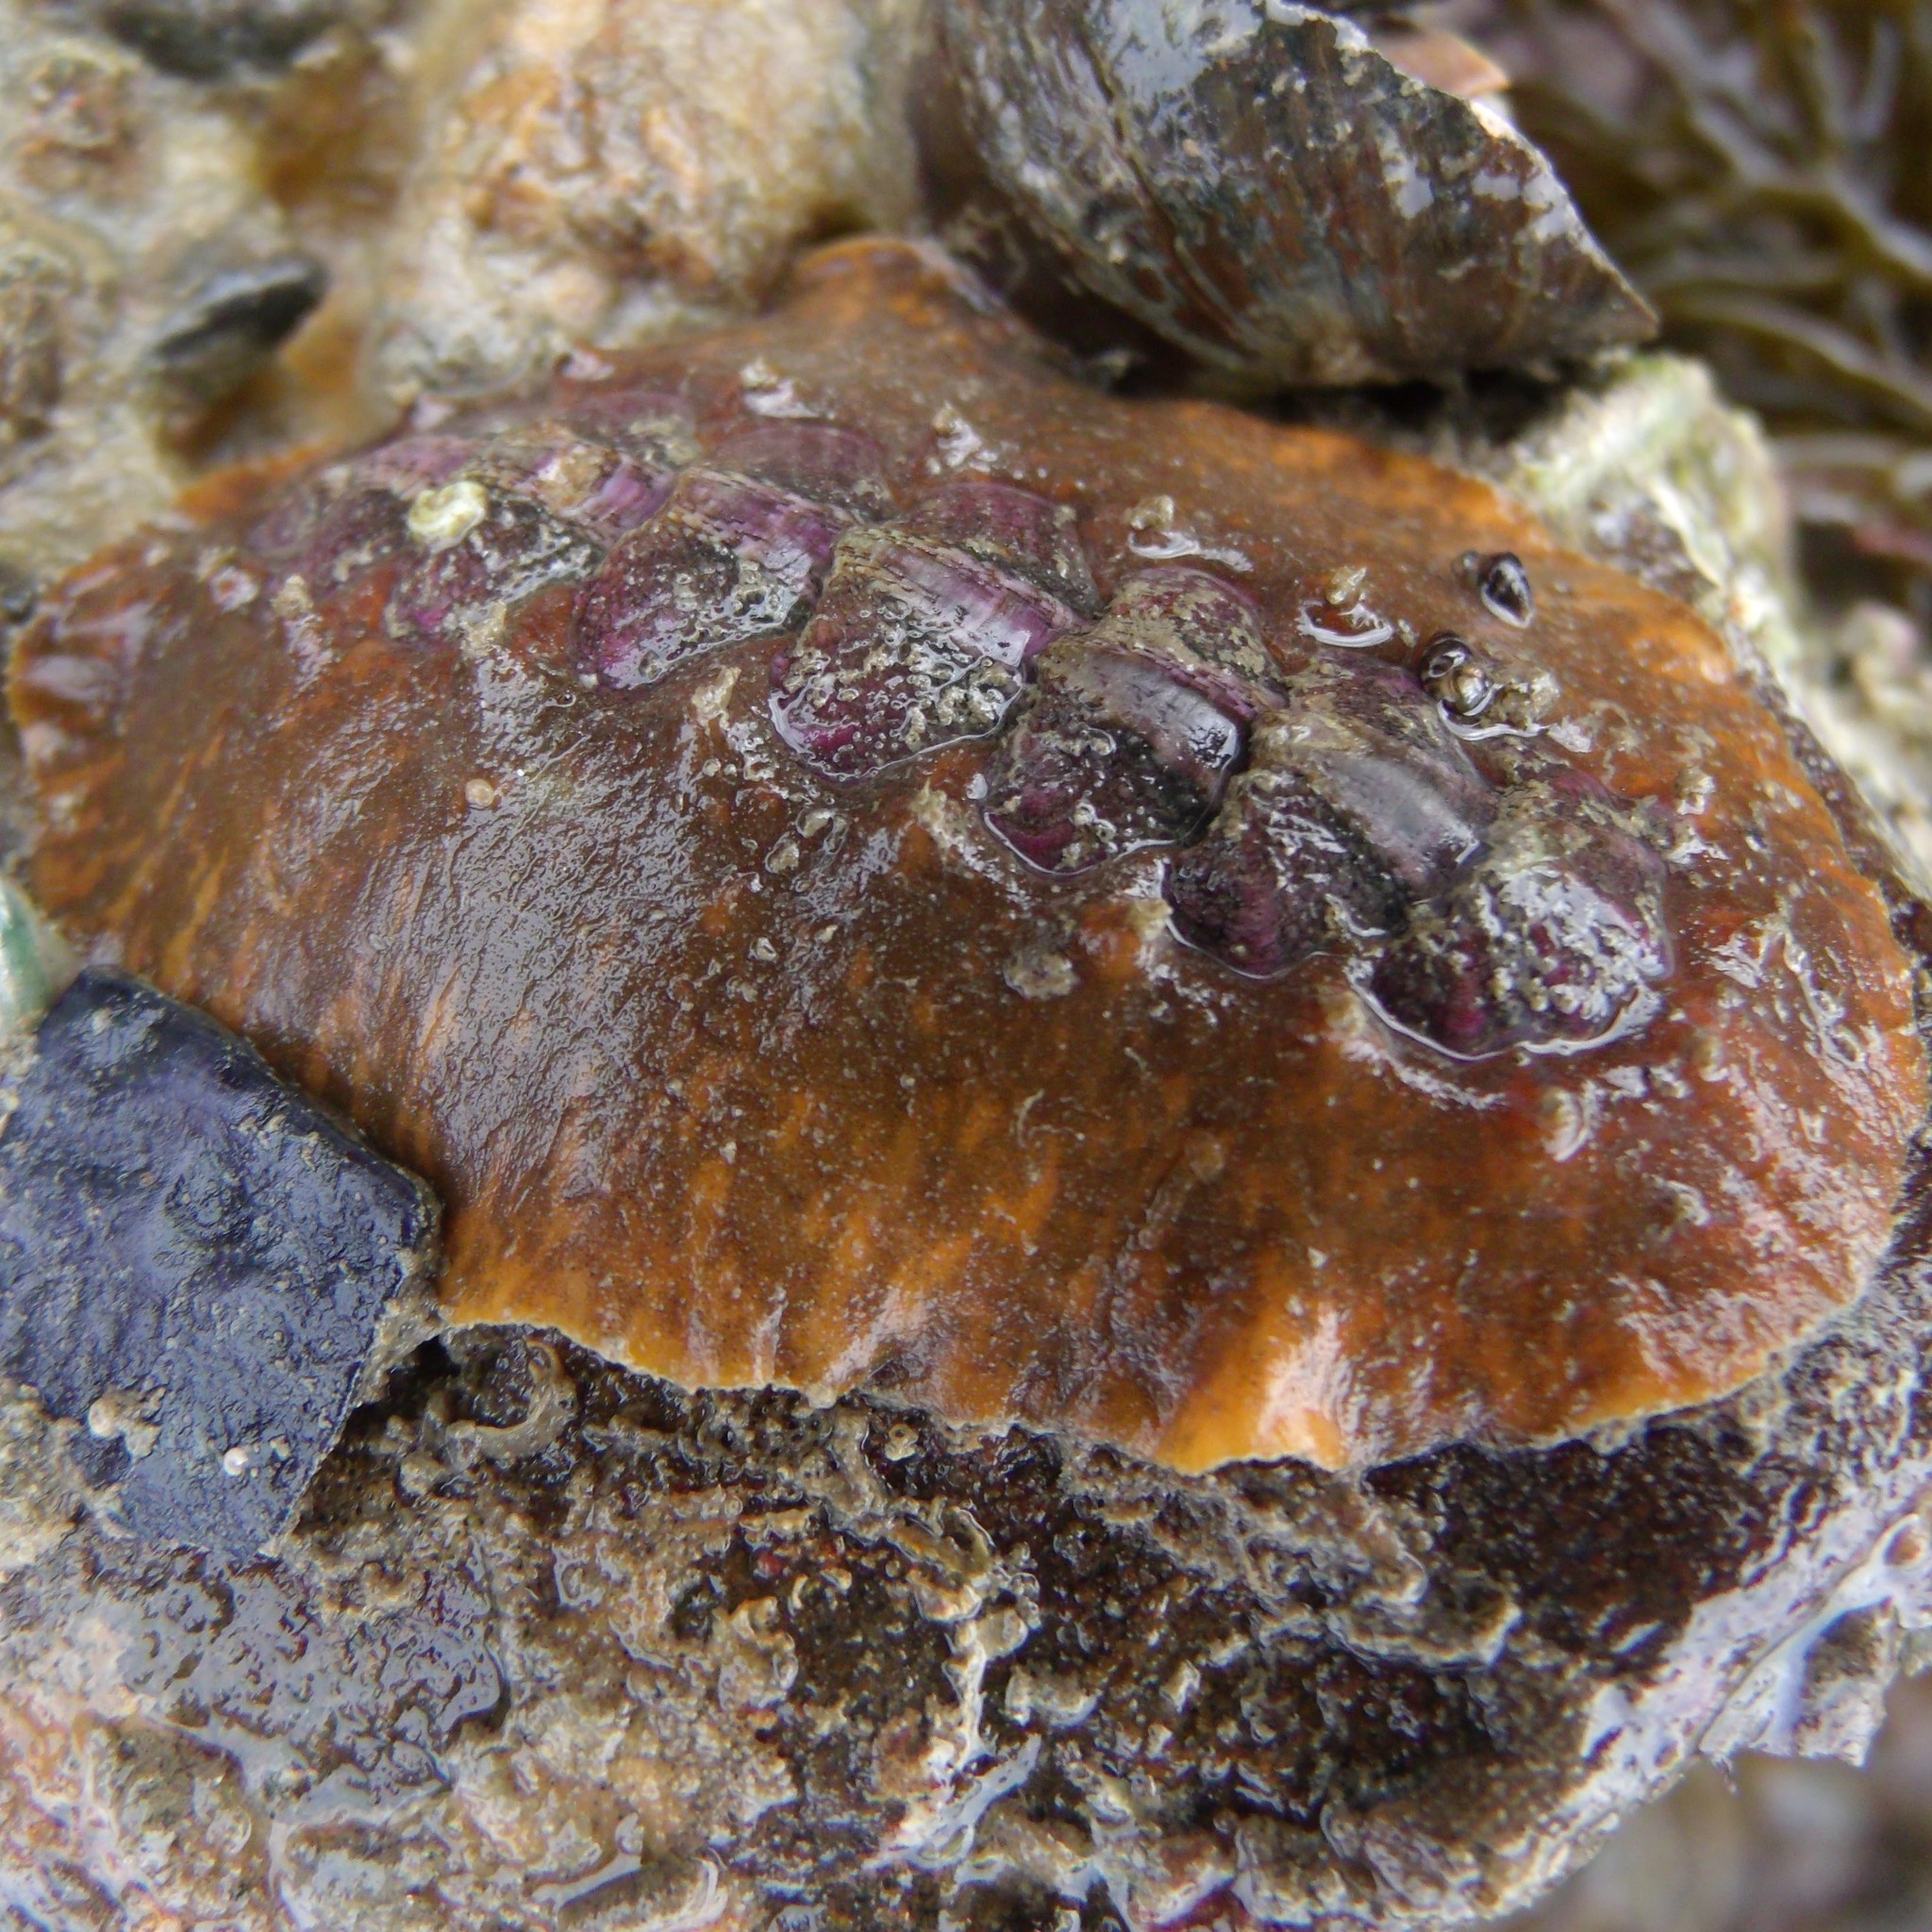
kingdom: Animalia
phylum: Mollusca
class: Polyplacophora
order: Chitonida
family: Acanthochitonidae
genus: Notoplax
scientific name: Notoplax violacea
